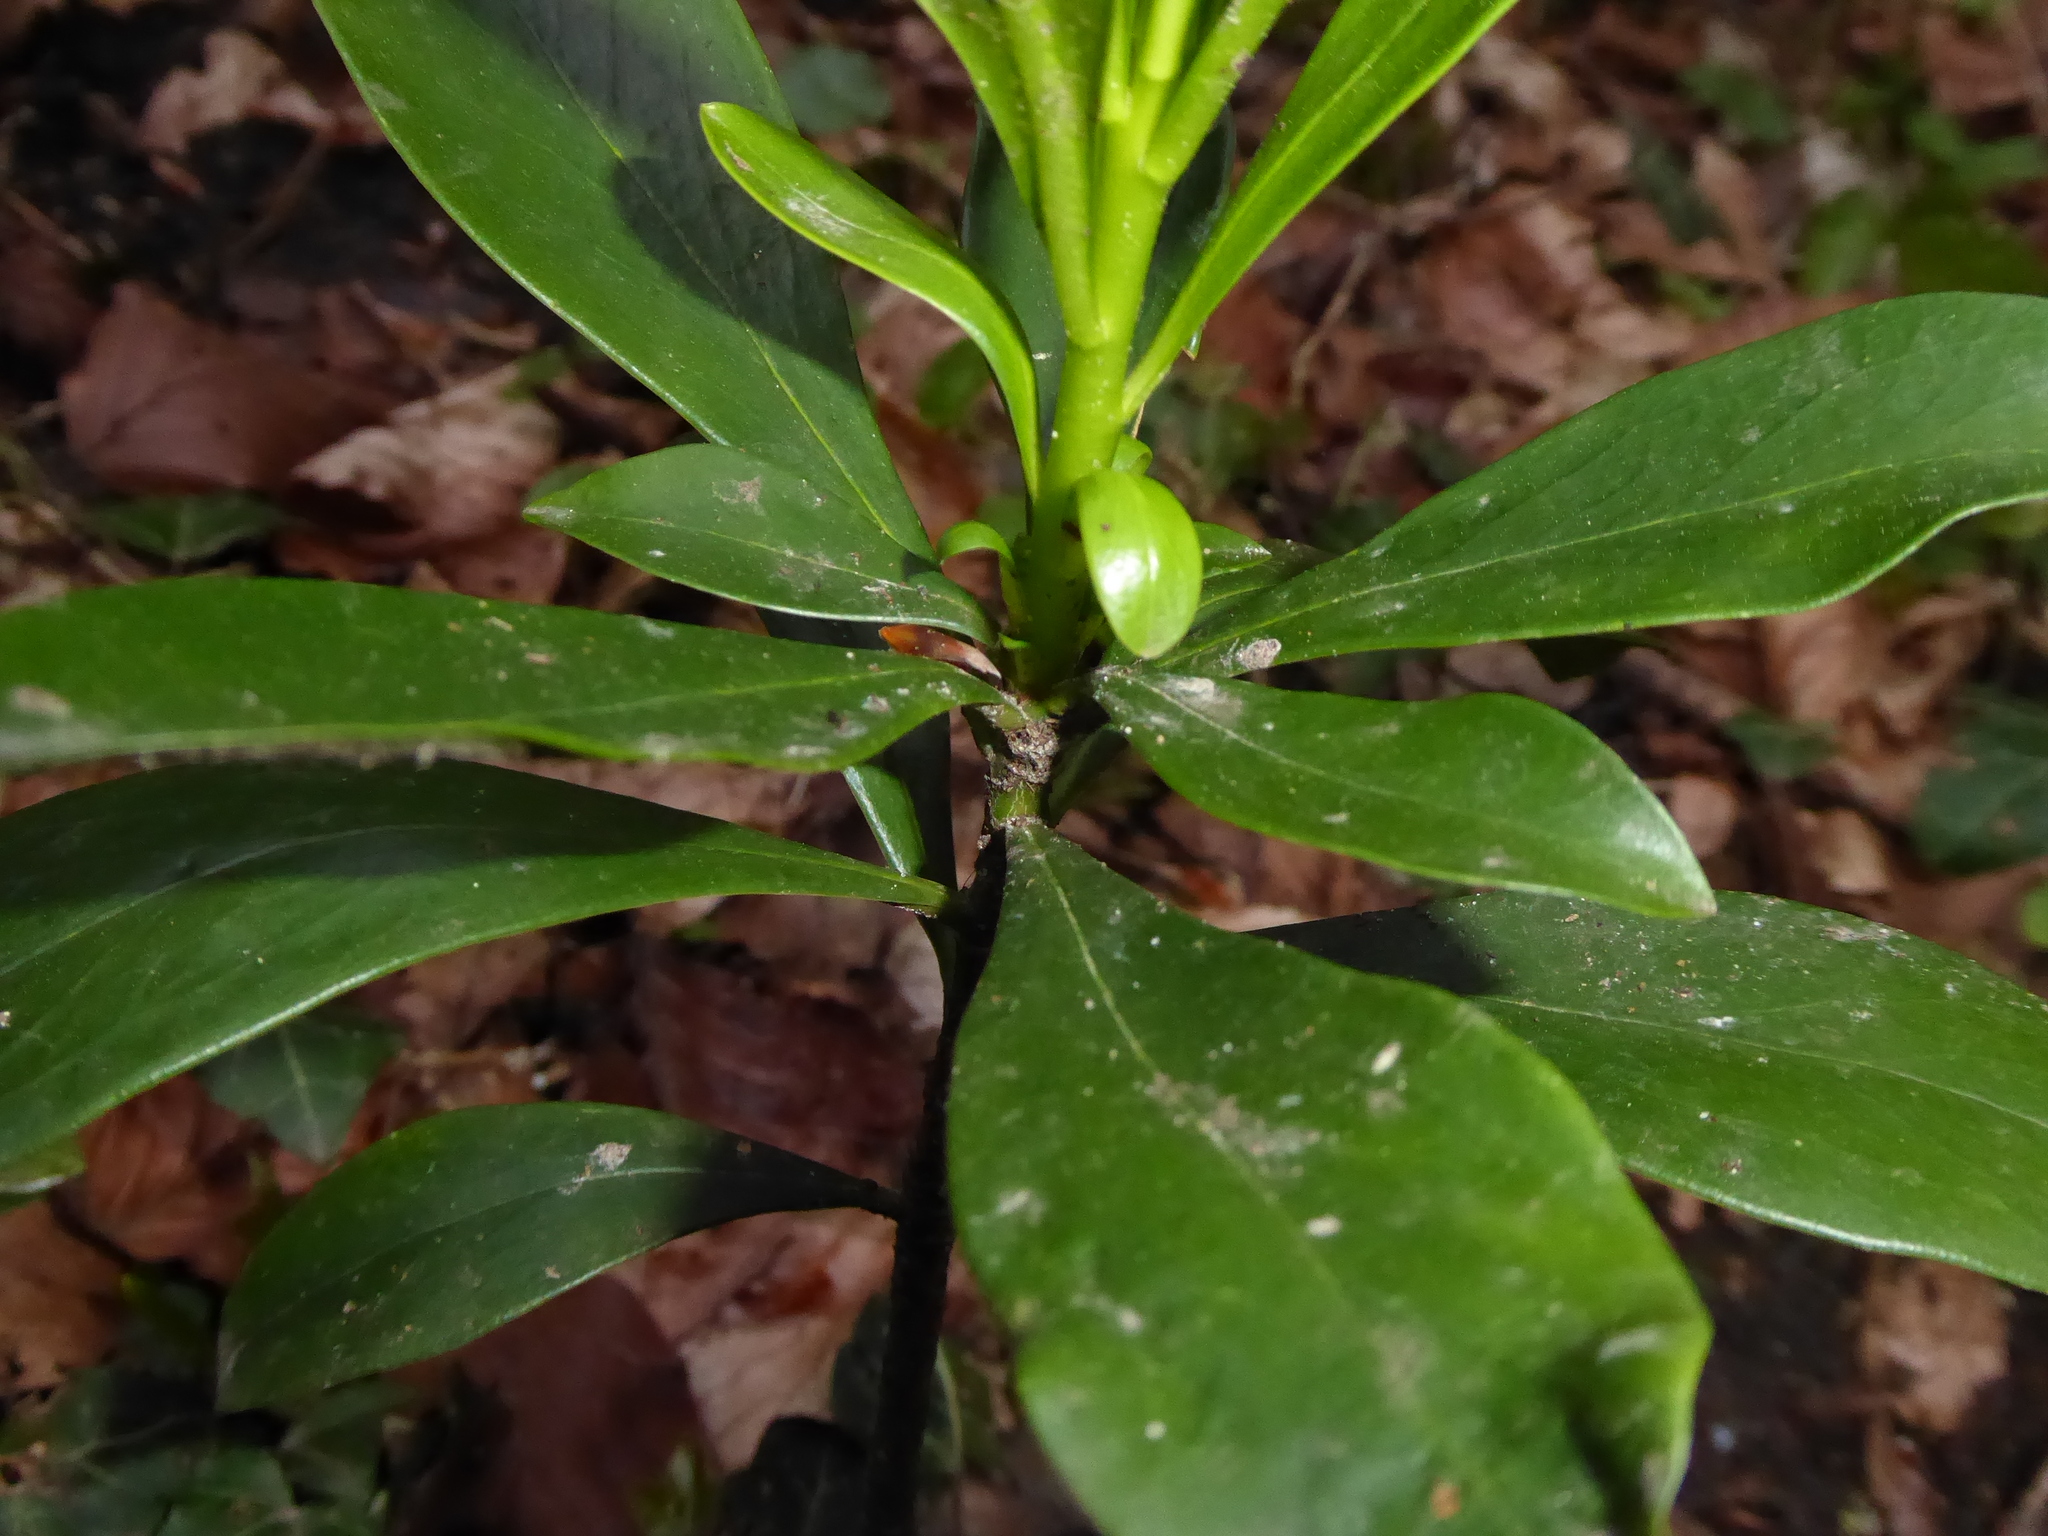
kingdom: Plantae
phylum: Tracheophyta
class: Magnoliopsida
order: Malvales
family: Thymelaeaceae
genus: Daphne
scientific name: Daphne laureola
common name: Spurge-laurel
